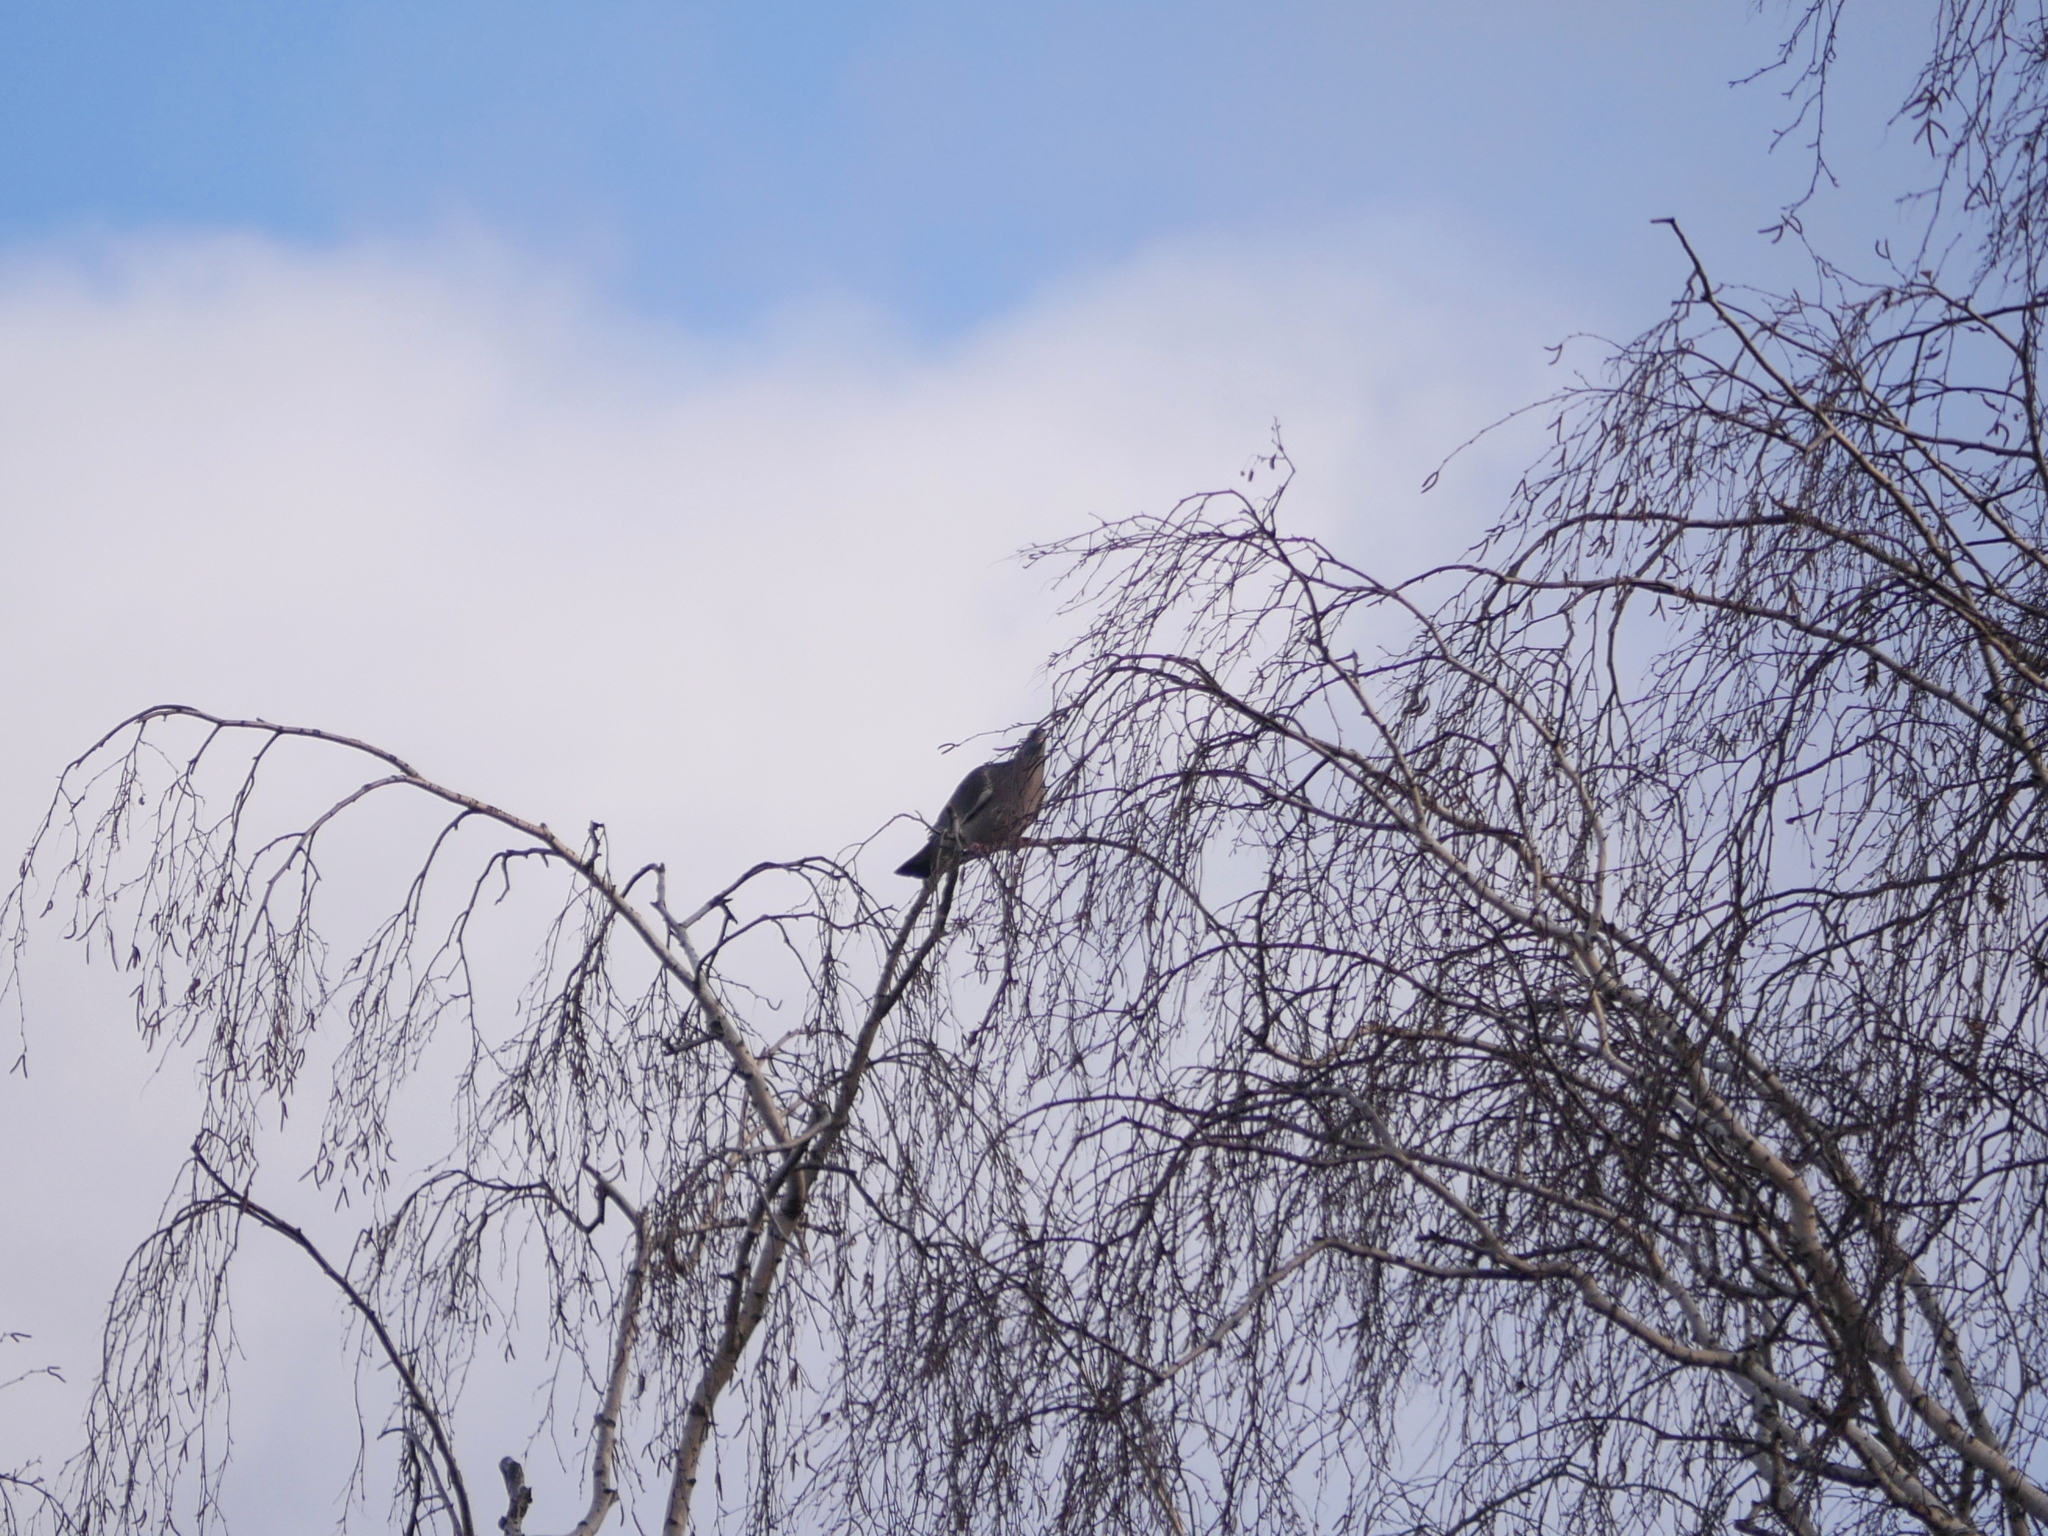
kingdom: Animalia
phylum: Chordata
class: Aves
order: Columbiformes
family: Columbidae
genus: Columba
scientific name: Columba palumbus
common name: Common wood pigeon
